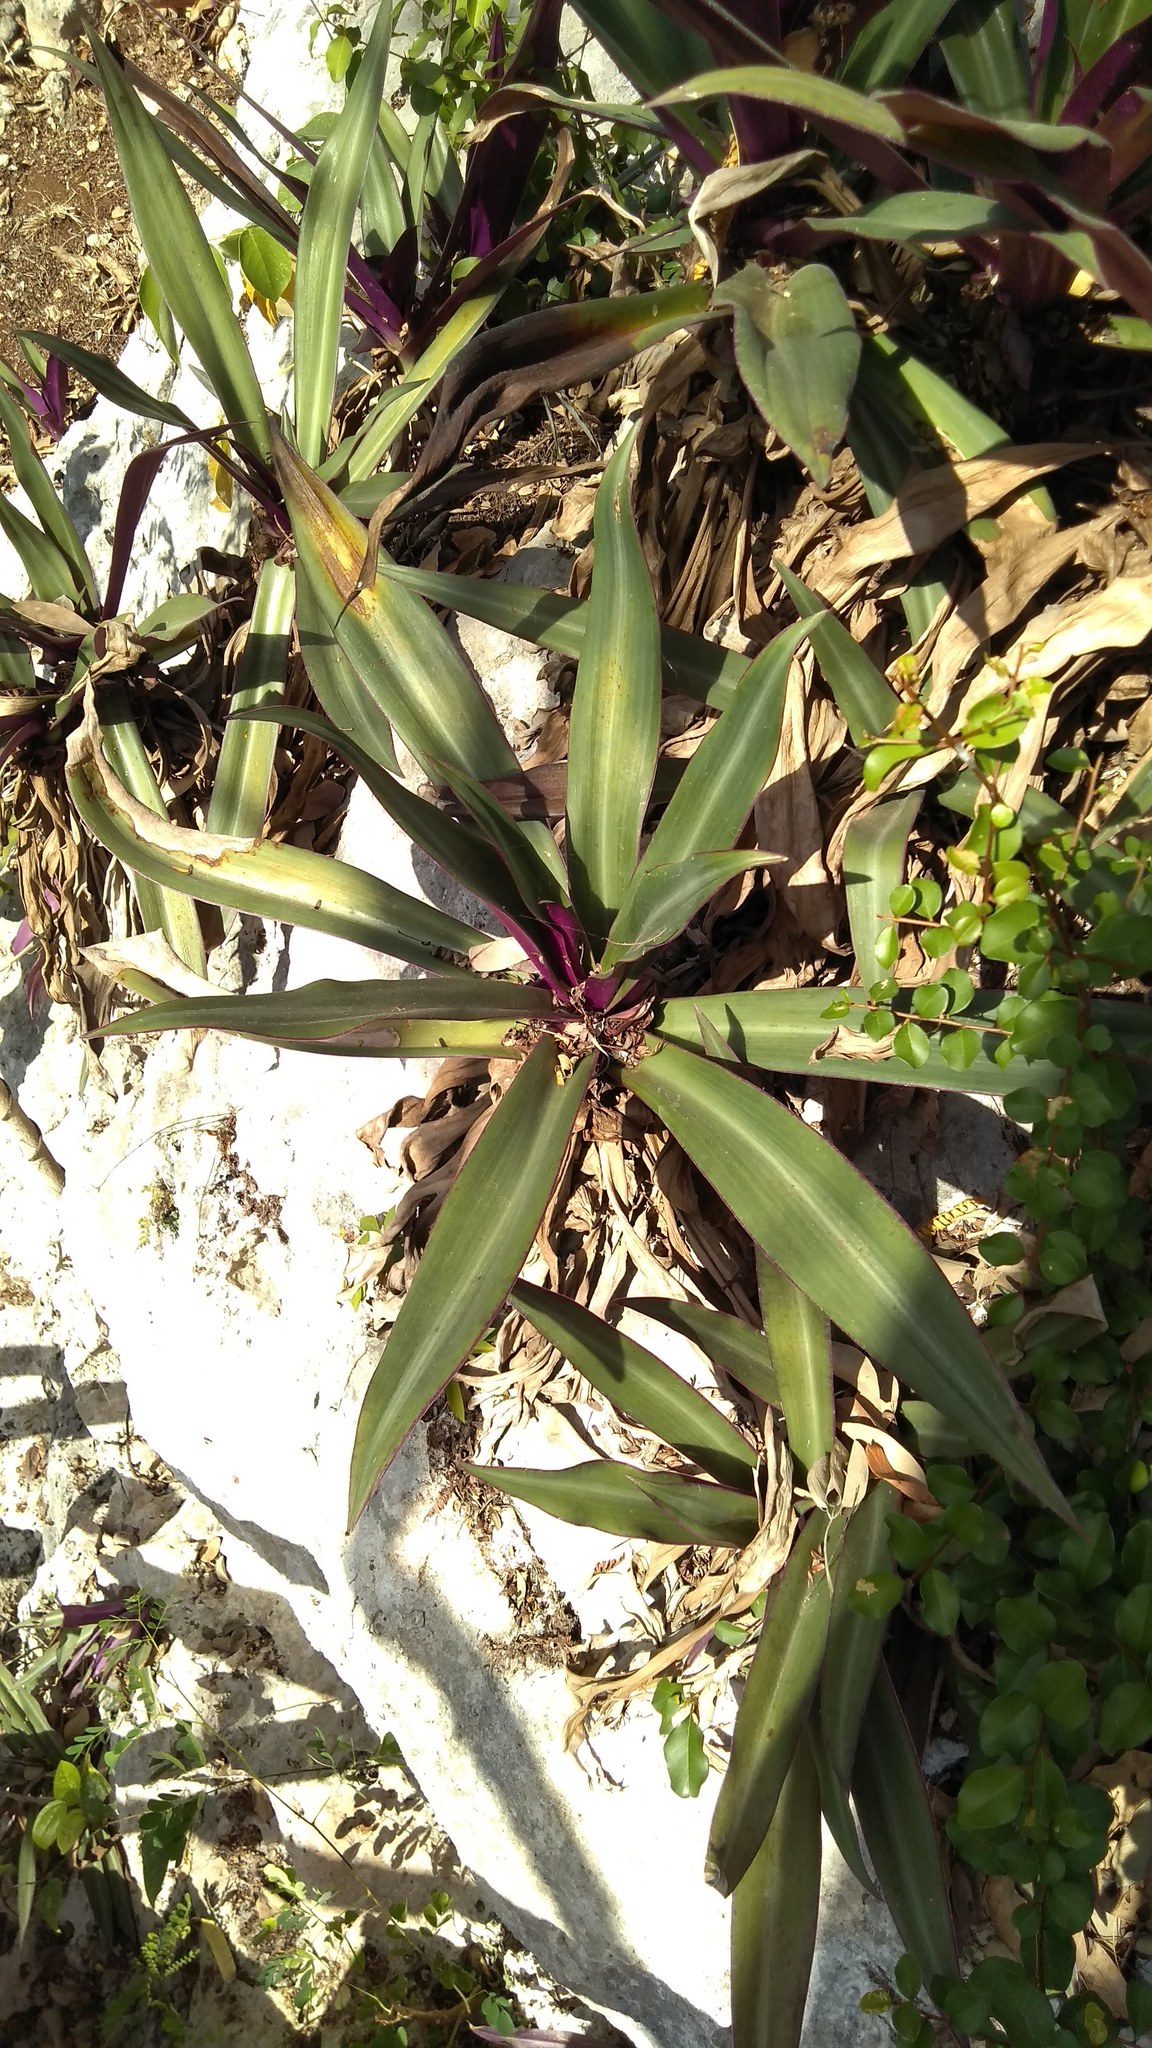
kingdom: Plantae
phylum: Tracheophyta
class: Liliopsida
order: Commelinales
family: Commelinaceae
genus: Tradescantia
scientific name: Tradescantia spathacea
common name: Boatlily
